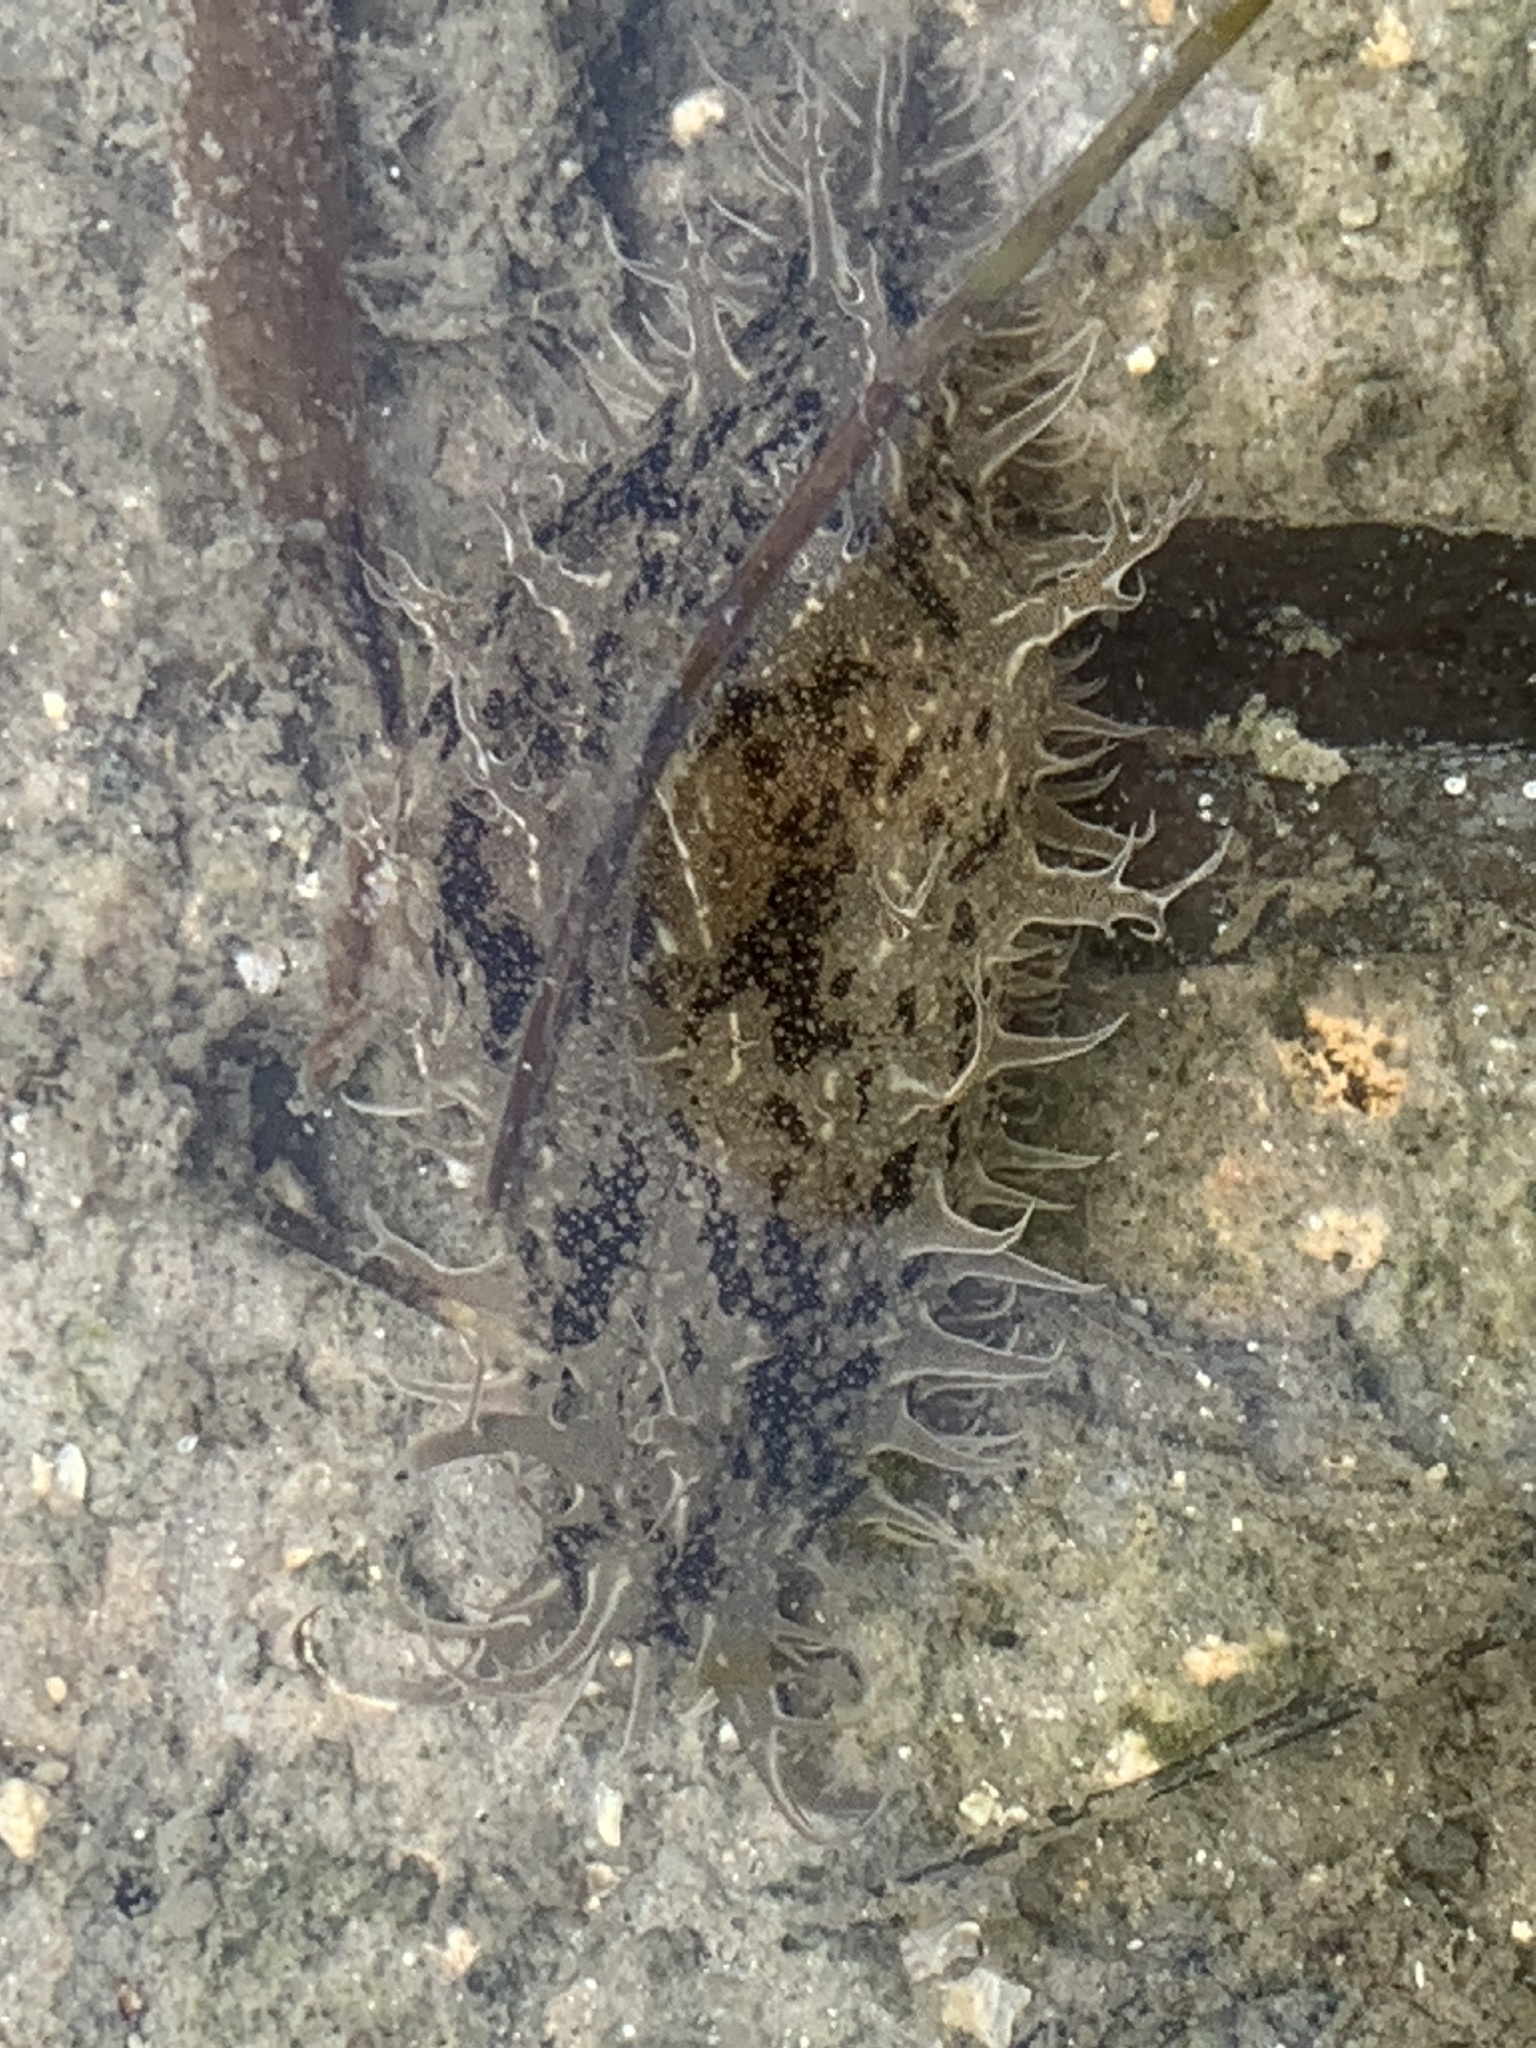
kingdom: Animalia
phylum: Mollusca
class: Gastropoda
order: Aplysiida
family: Aplysiidae
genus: Bursatella
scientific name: Bursatella leachii
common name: Shaggy sea hare
